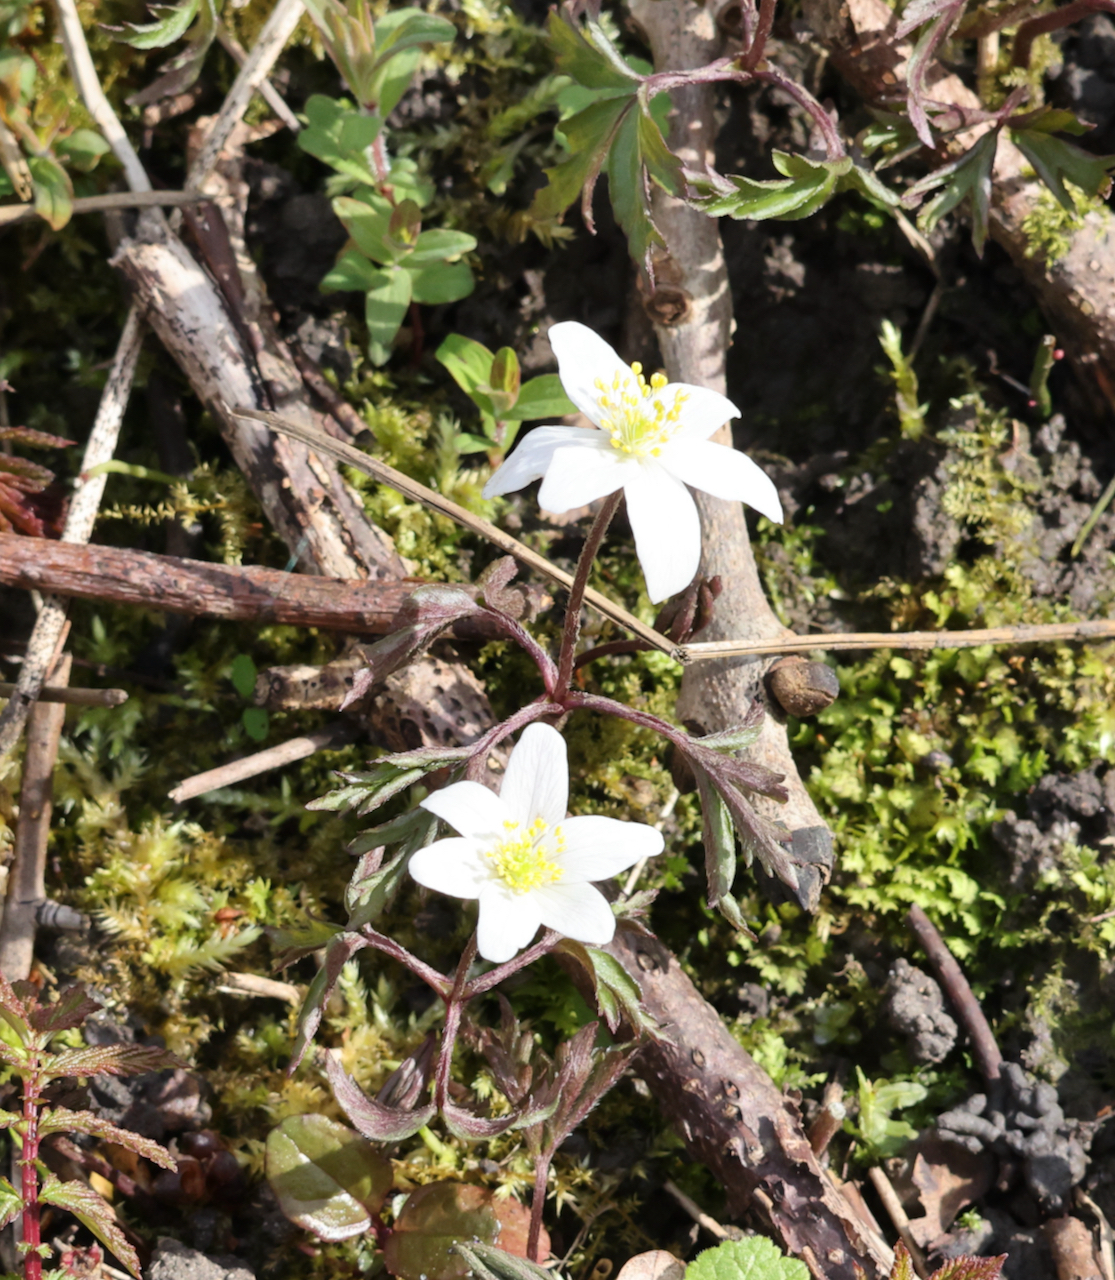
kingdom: Plantae
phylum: Tracheophyta
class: Magnoliopsida
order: Ranunculales
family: Ranunculaceae
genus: Anemone
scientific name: Anemone nemorosa
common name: Wood anemone
